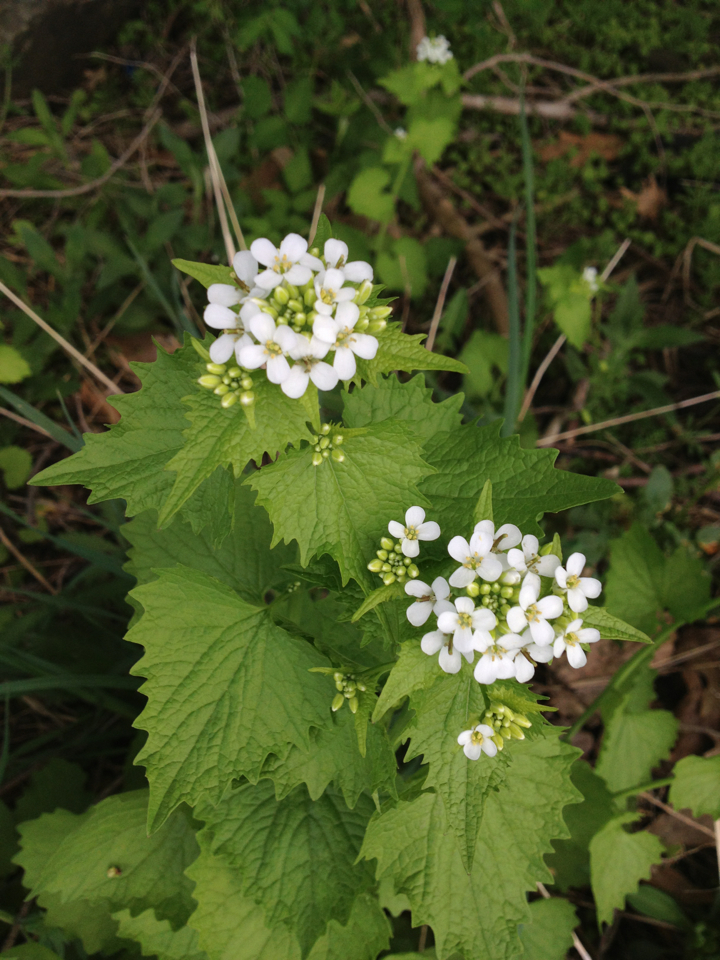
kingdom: Plantae
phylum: Tracheophyta
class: Magnoliopsida
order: Brassicales
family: Brassicaceae
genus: Alliaria
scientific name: Alliaria petiolata
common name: Garlic mustard
